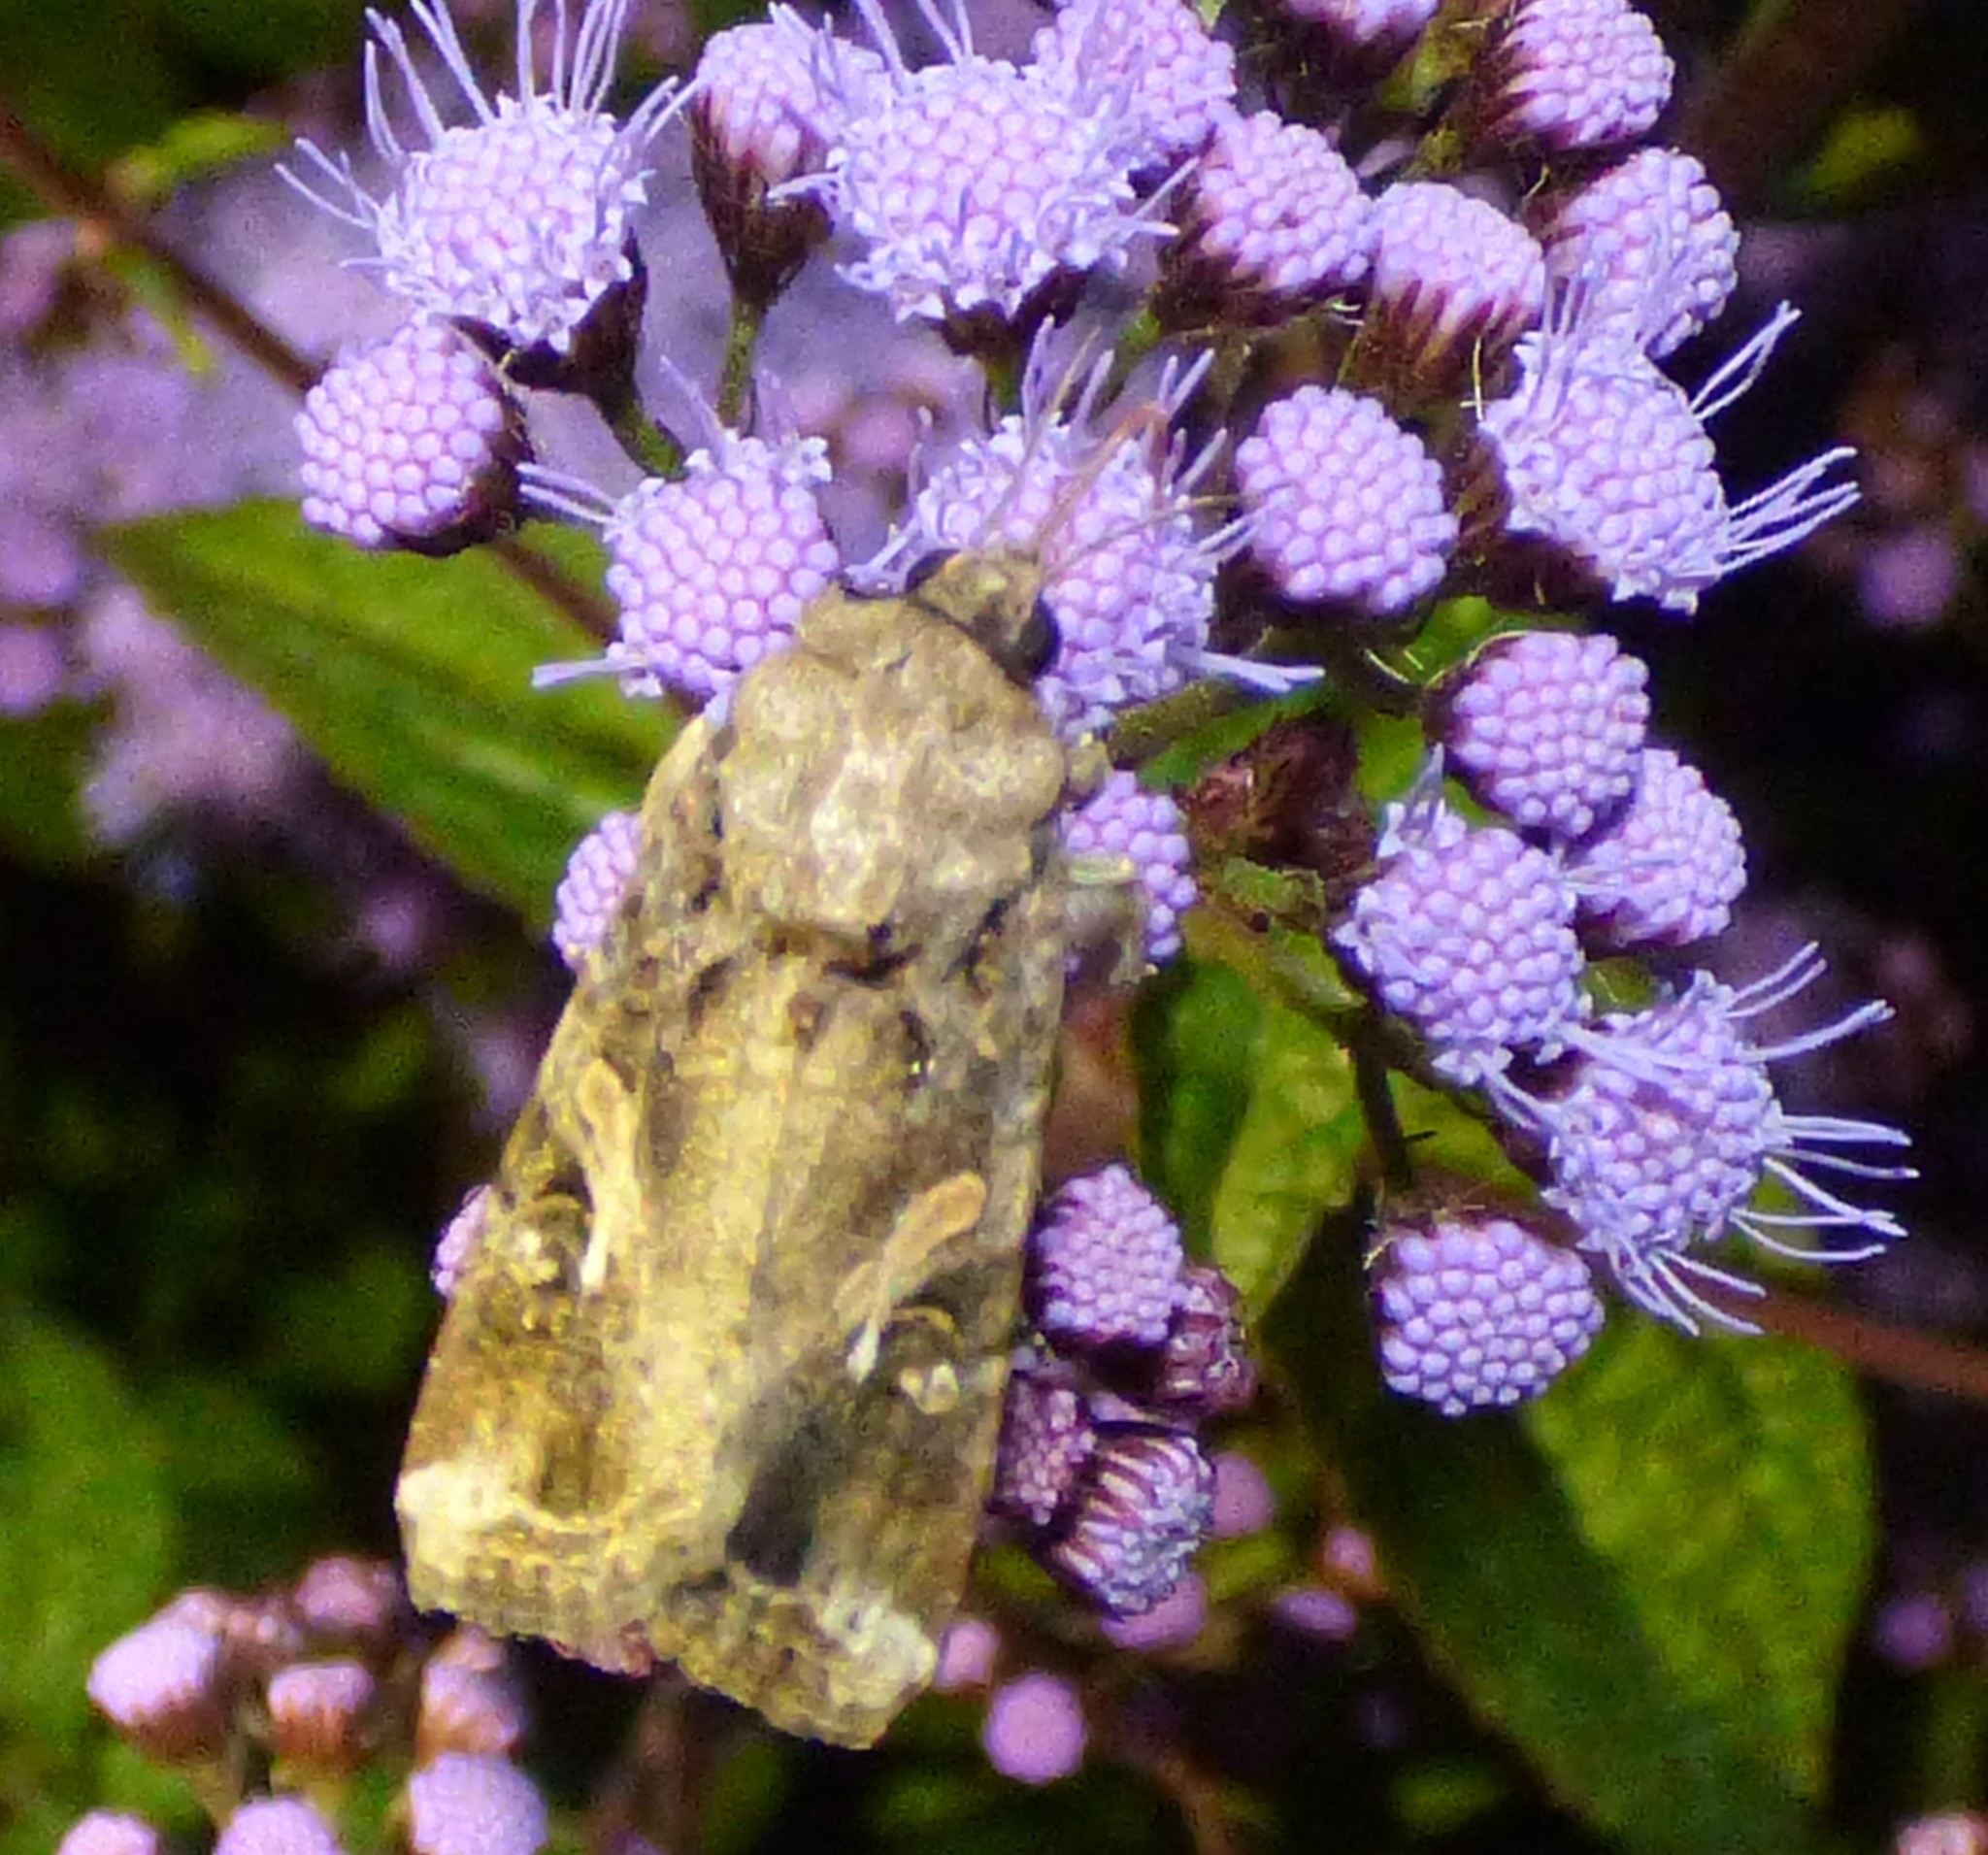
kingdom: Animalia
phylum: Arthropoda
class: Insecta
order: Lepidoptera
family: Noctuidae
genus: Spodoptera
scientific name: Spodoptera frugiperda
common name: Fall armyworm
